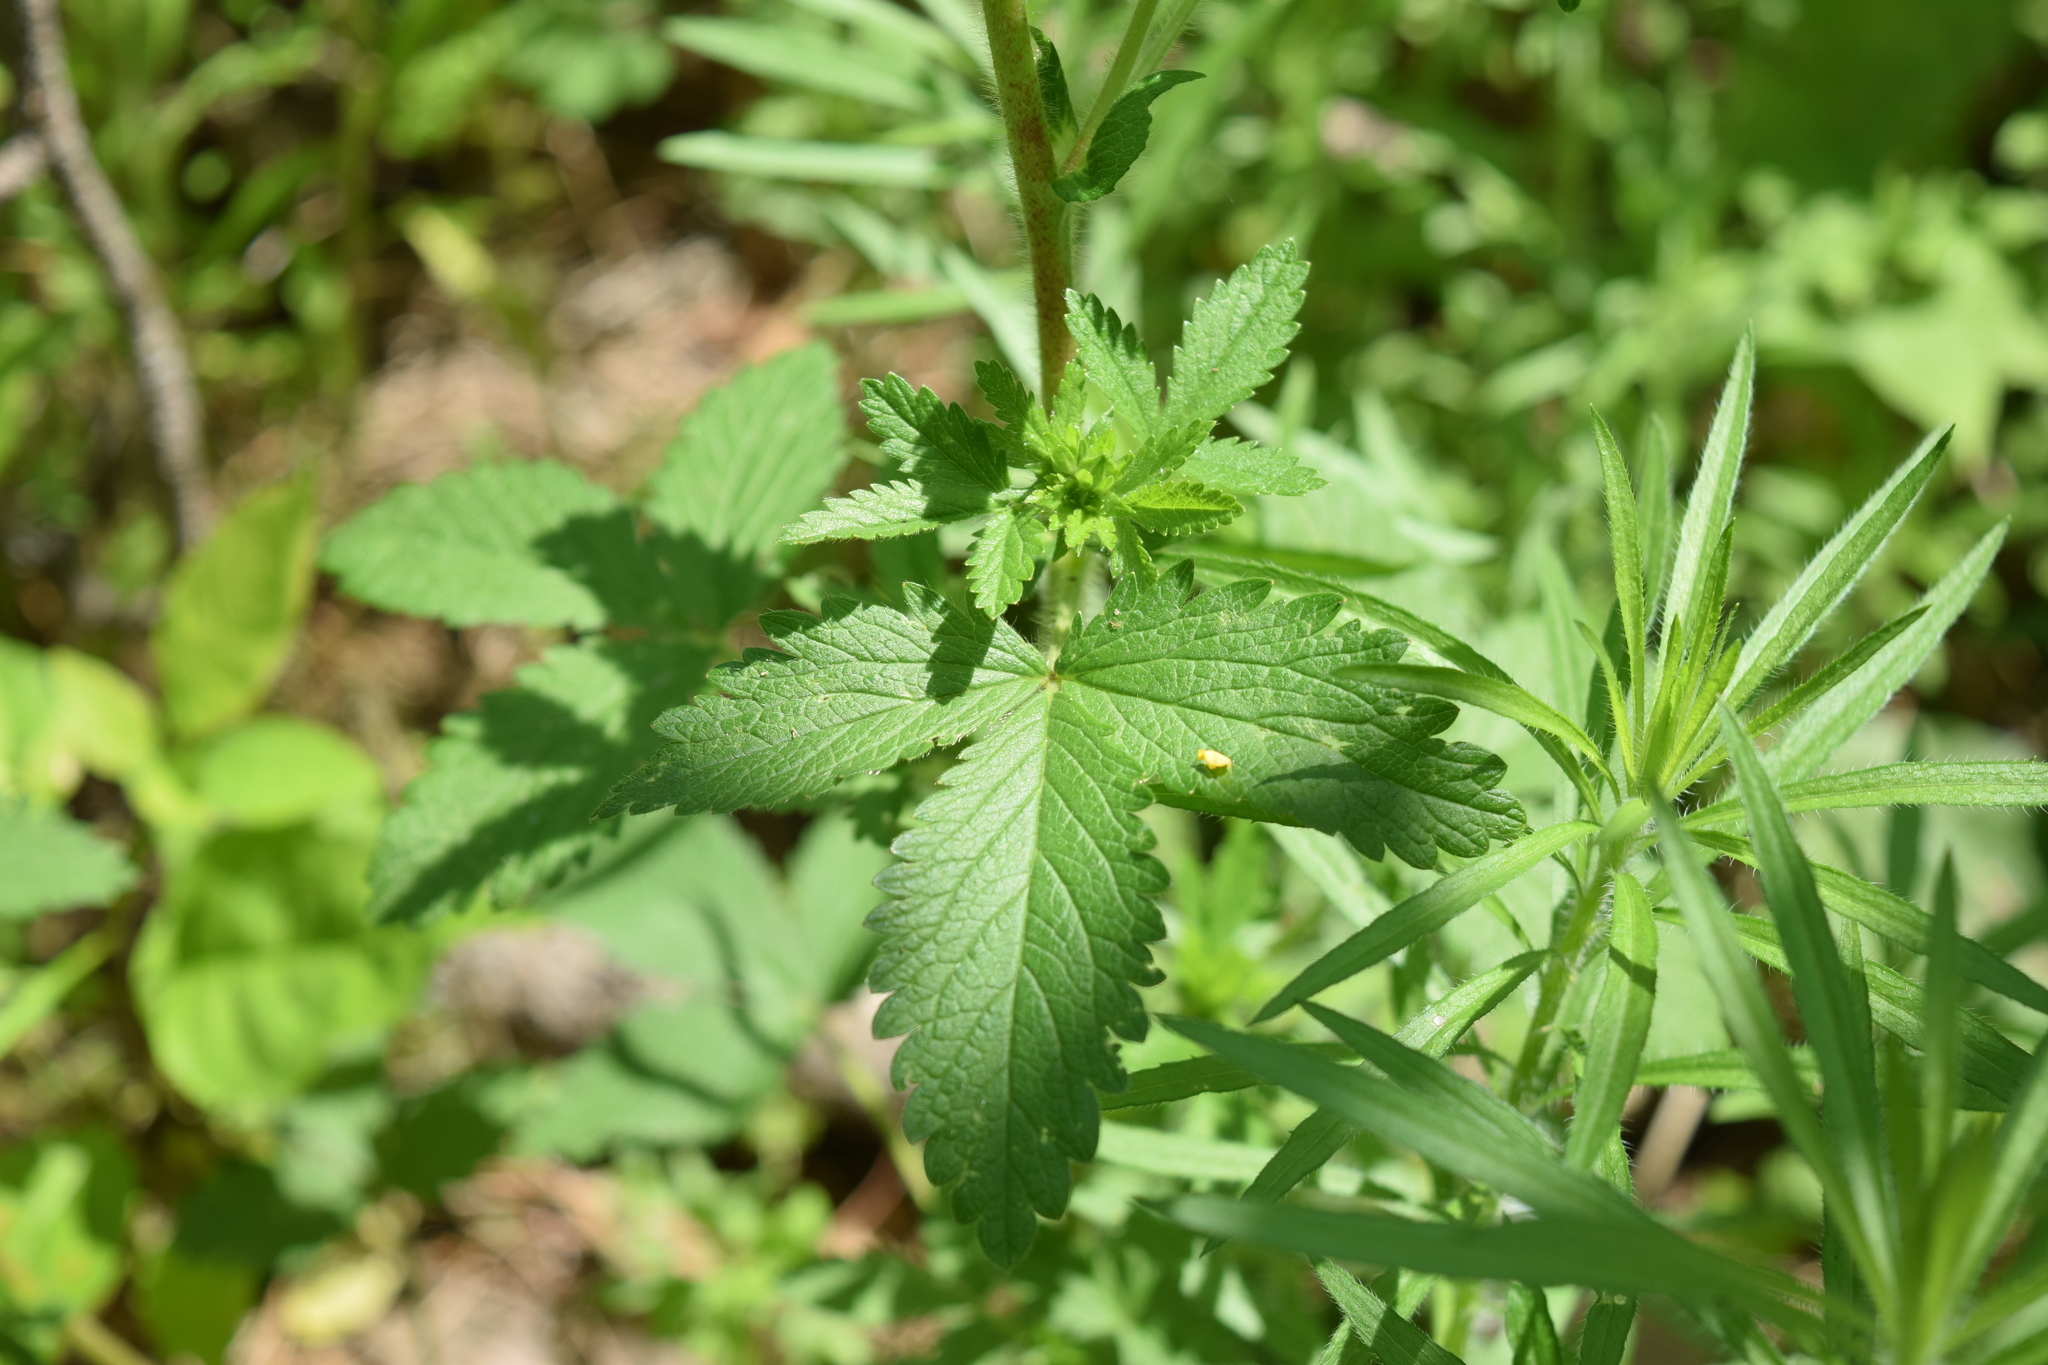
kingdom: Plantae
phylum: Tracheophyta
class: Magnoliopsida
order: Rosales
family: Rosaceae
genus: Potentilla
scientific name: Potentilla norvegica
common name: Ternate-leaved cinquefoil
